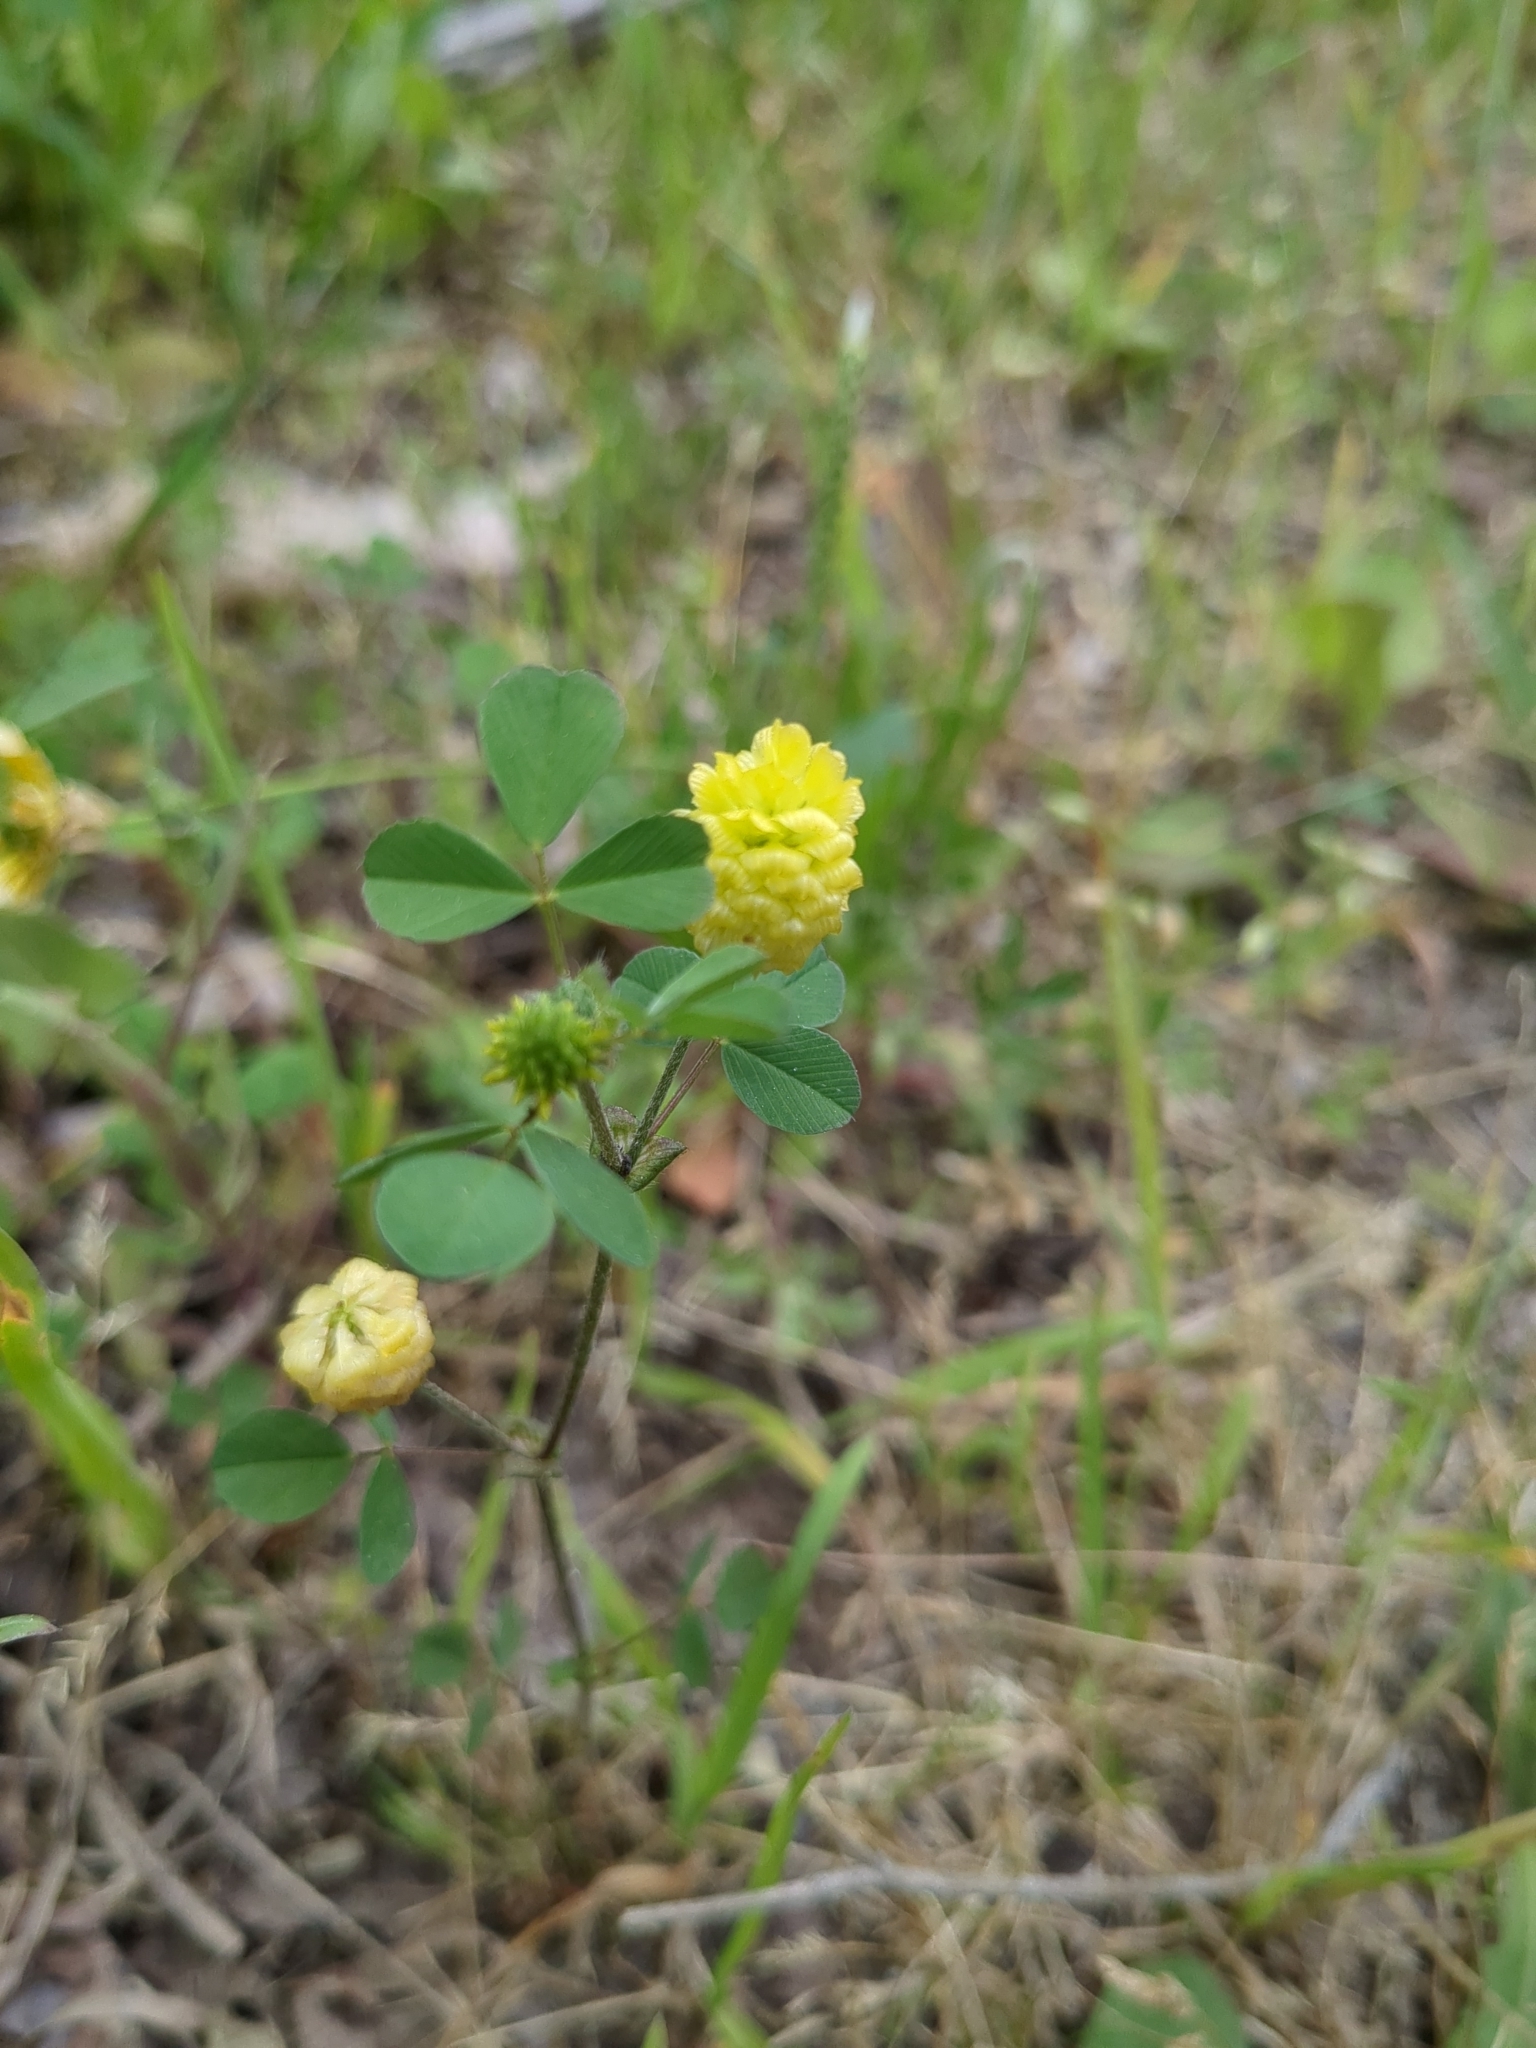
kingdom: Plantae
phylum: Tracheophyta
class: Magnoliopsida
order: Fabales
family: Fabaceae
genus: Trifolium
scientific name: Trifolium campestre
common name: Field clover
